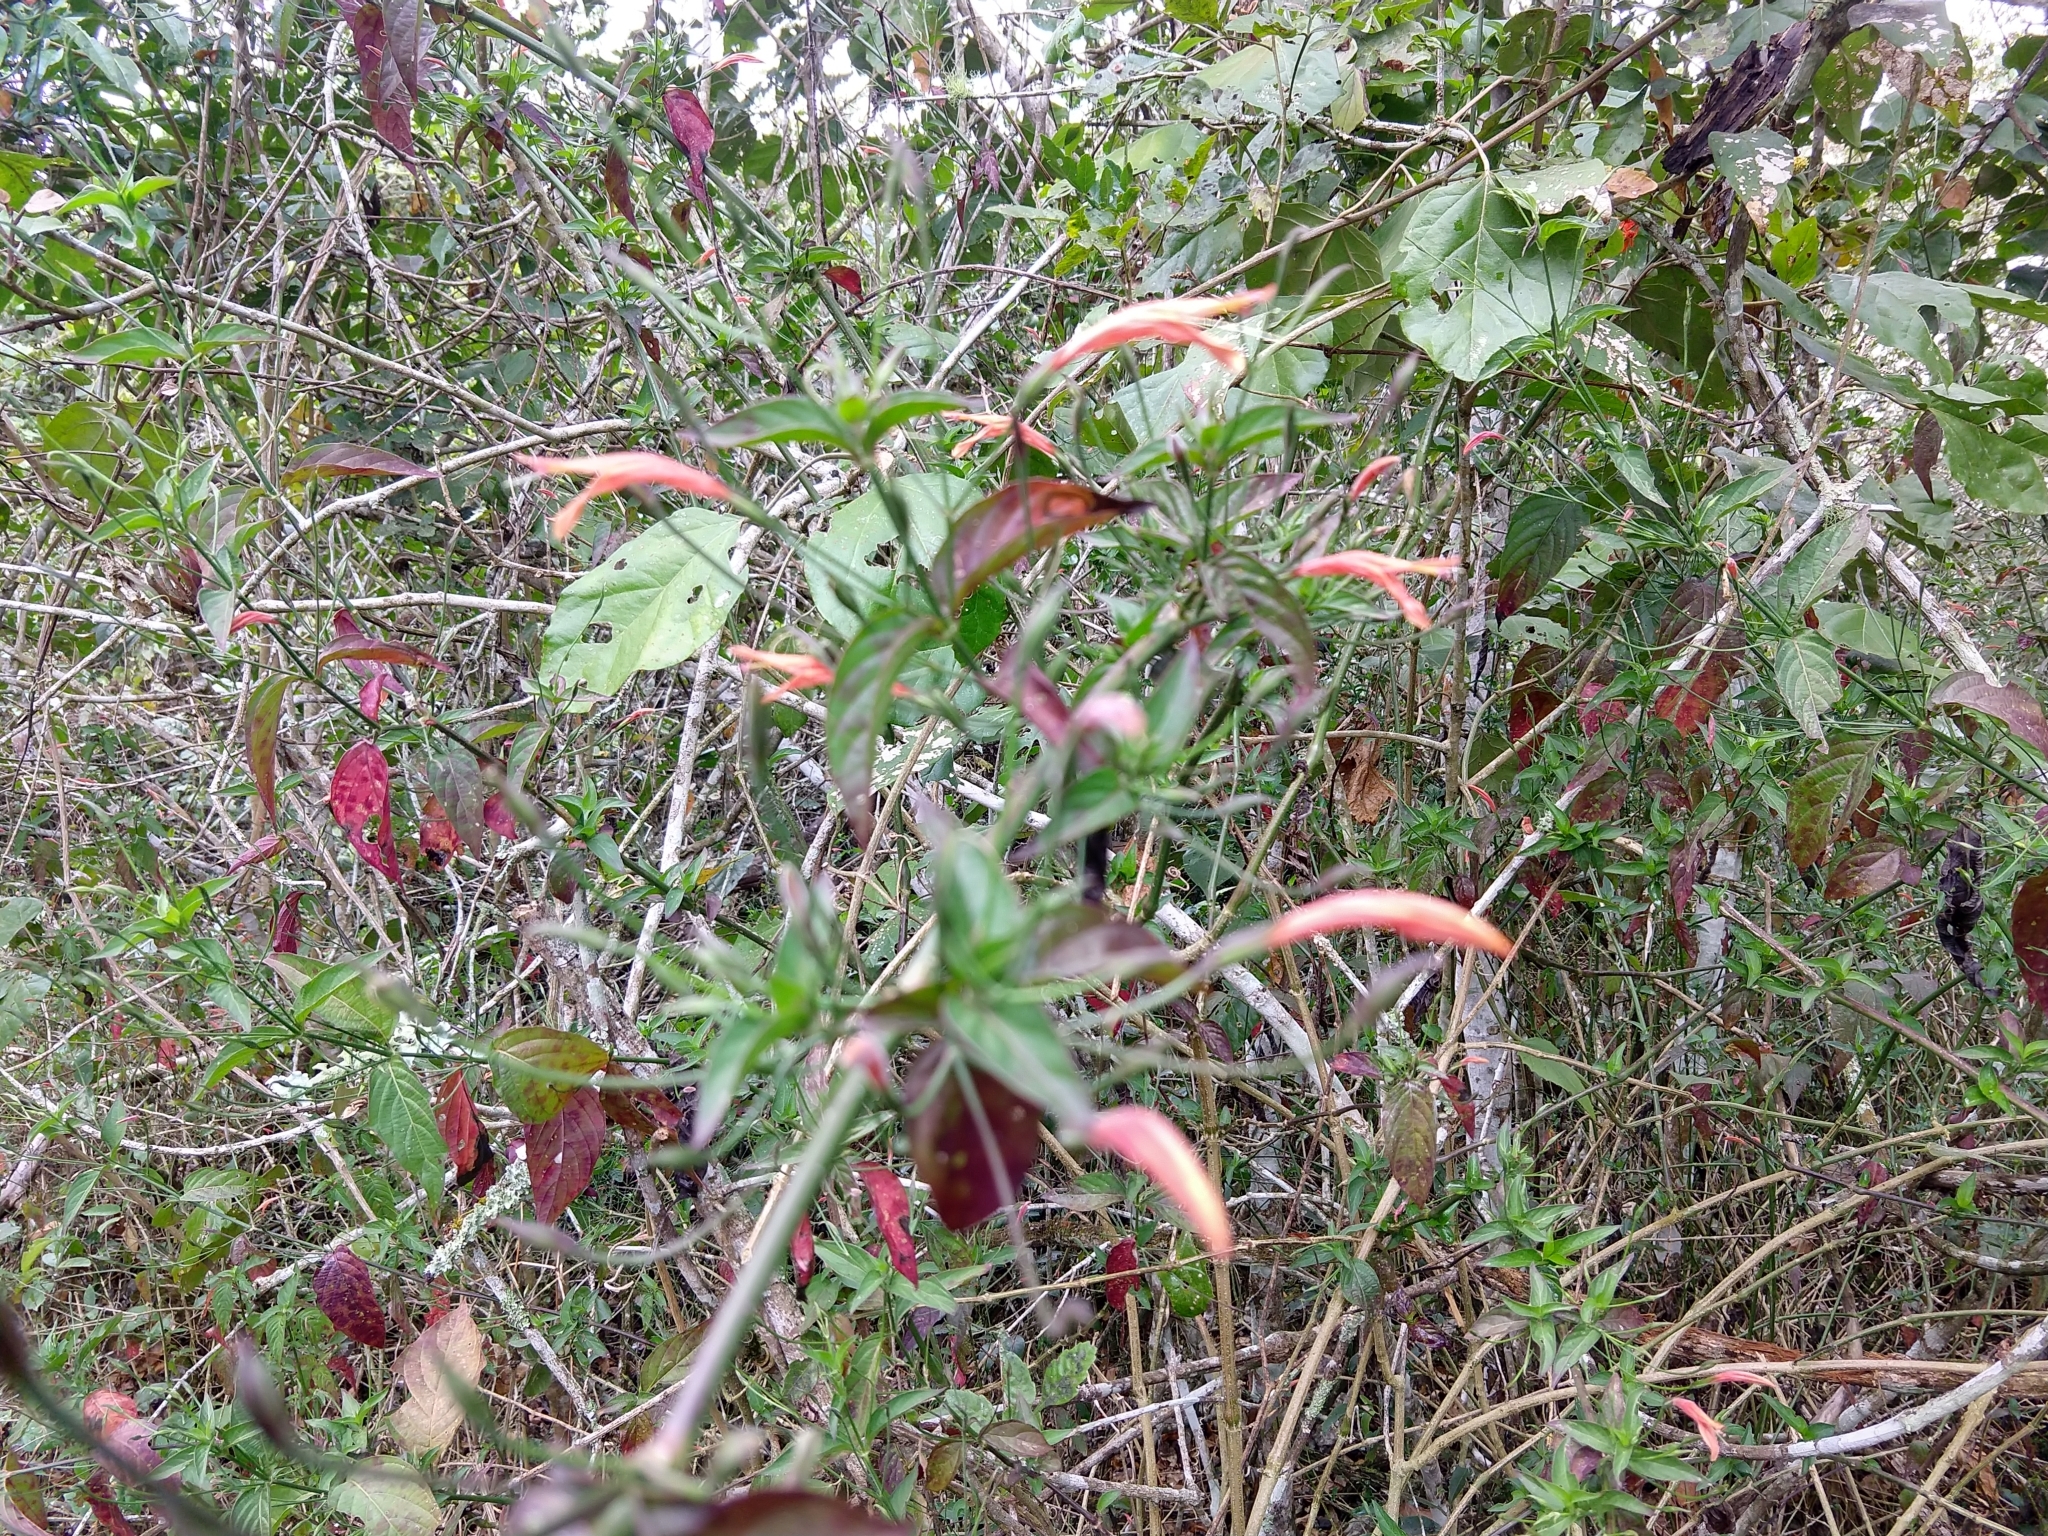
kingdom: Plantae
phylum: Tracheophyta
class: Magnoliopsida
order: Lamiales
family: Acanthaceae
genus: Dicliptera
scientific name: Dicliptera sexangularis
